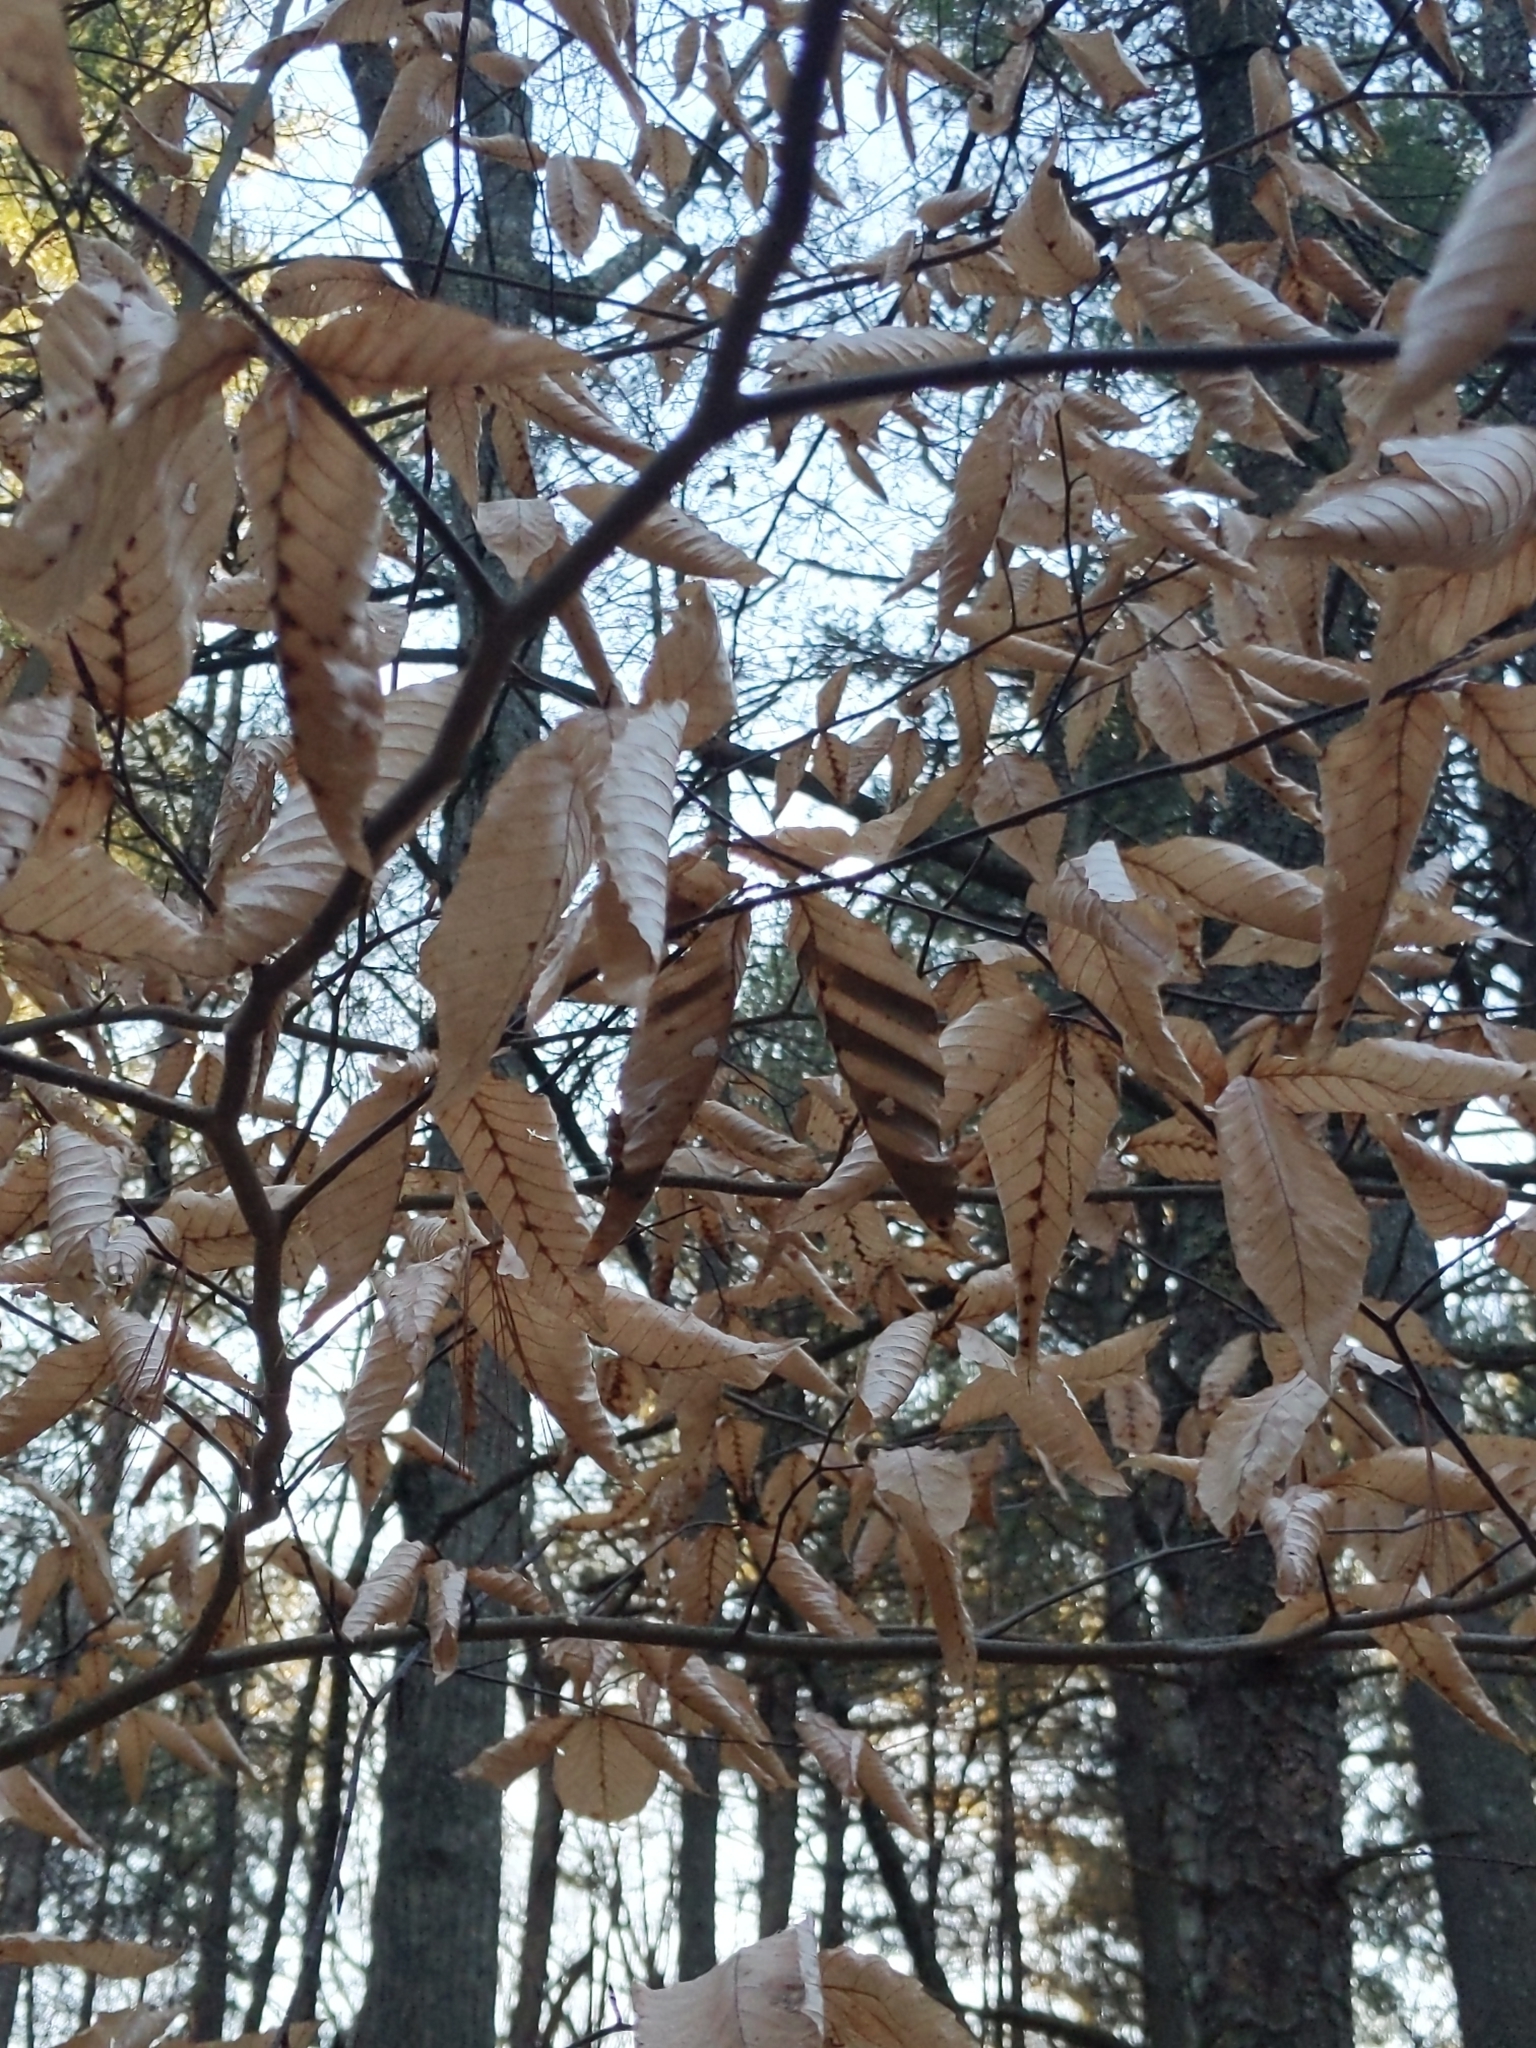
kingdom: Animalia
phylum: Nematoda
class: Chromadorea
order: Rhabditida
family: Anguinidae
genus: Litylenchus
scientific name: Litylenchus crenatae
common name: Beech leaf disease
